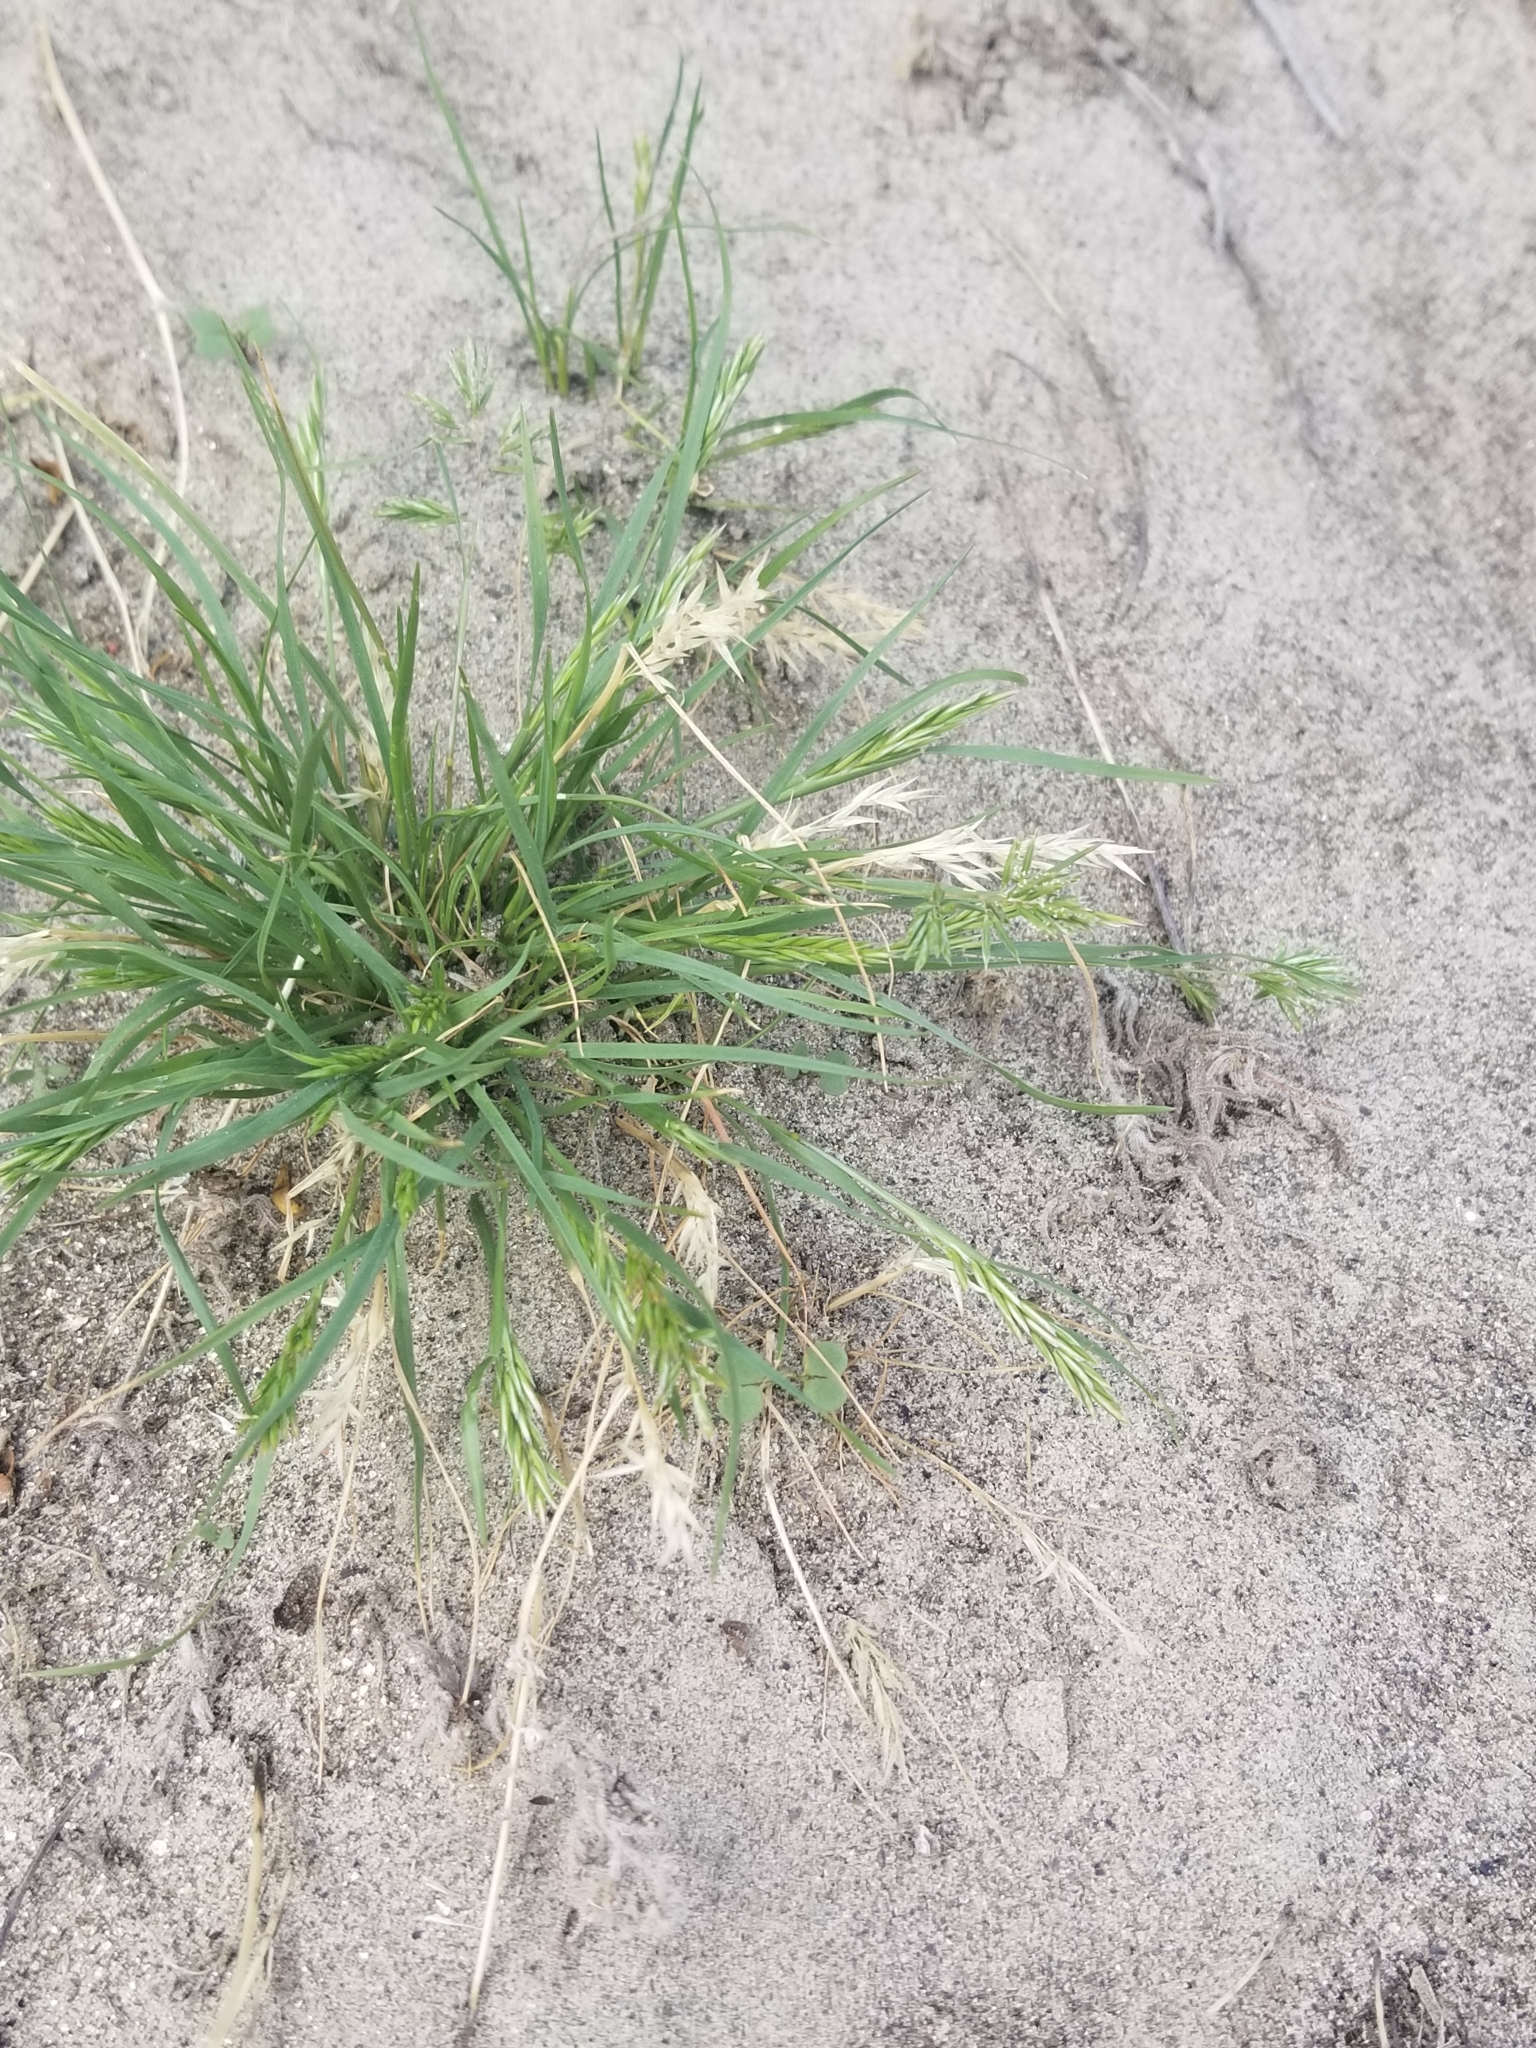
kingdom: Plantae
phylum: Tracheophyta
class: Liliopsida
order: Poales
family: Poaceae
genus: Schismus
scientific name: Schismus barbatus
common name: Kelch-grass
